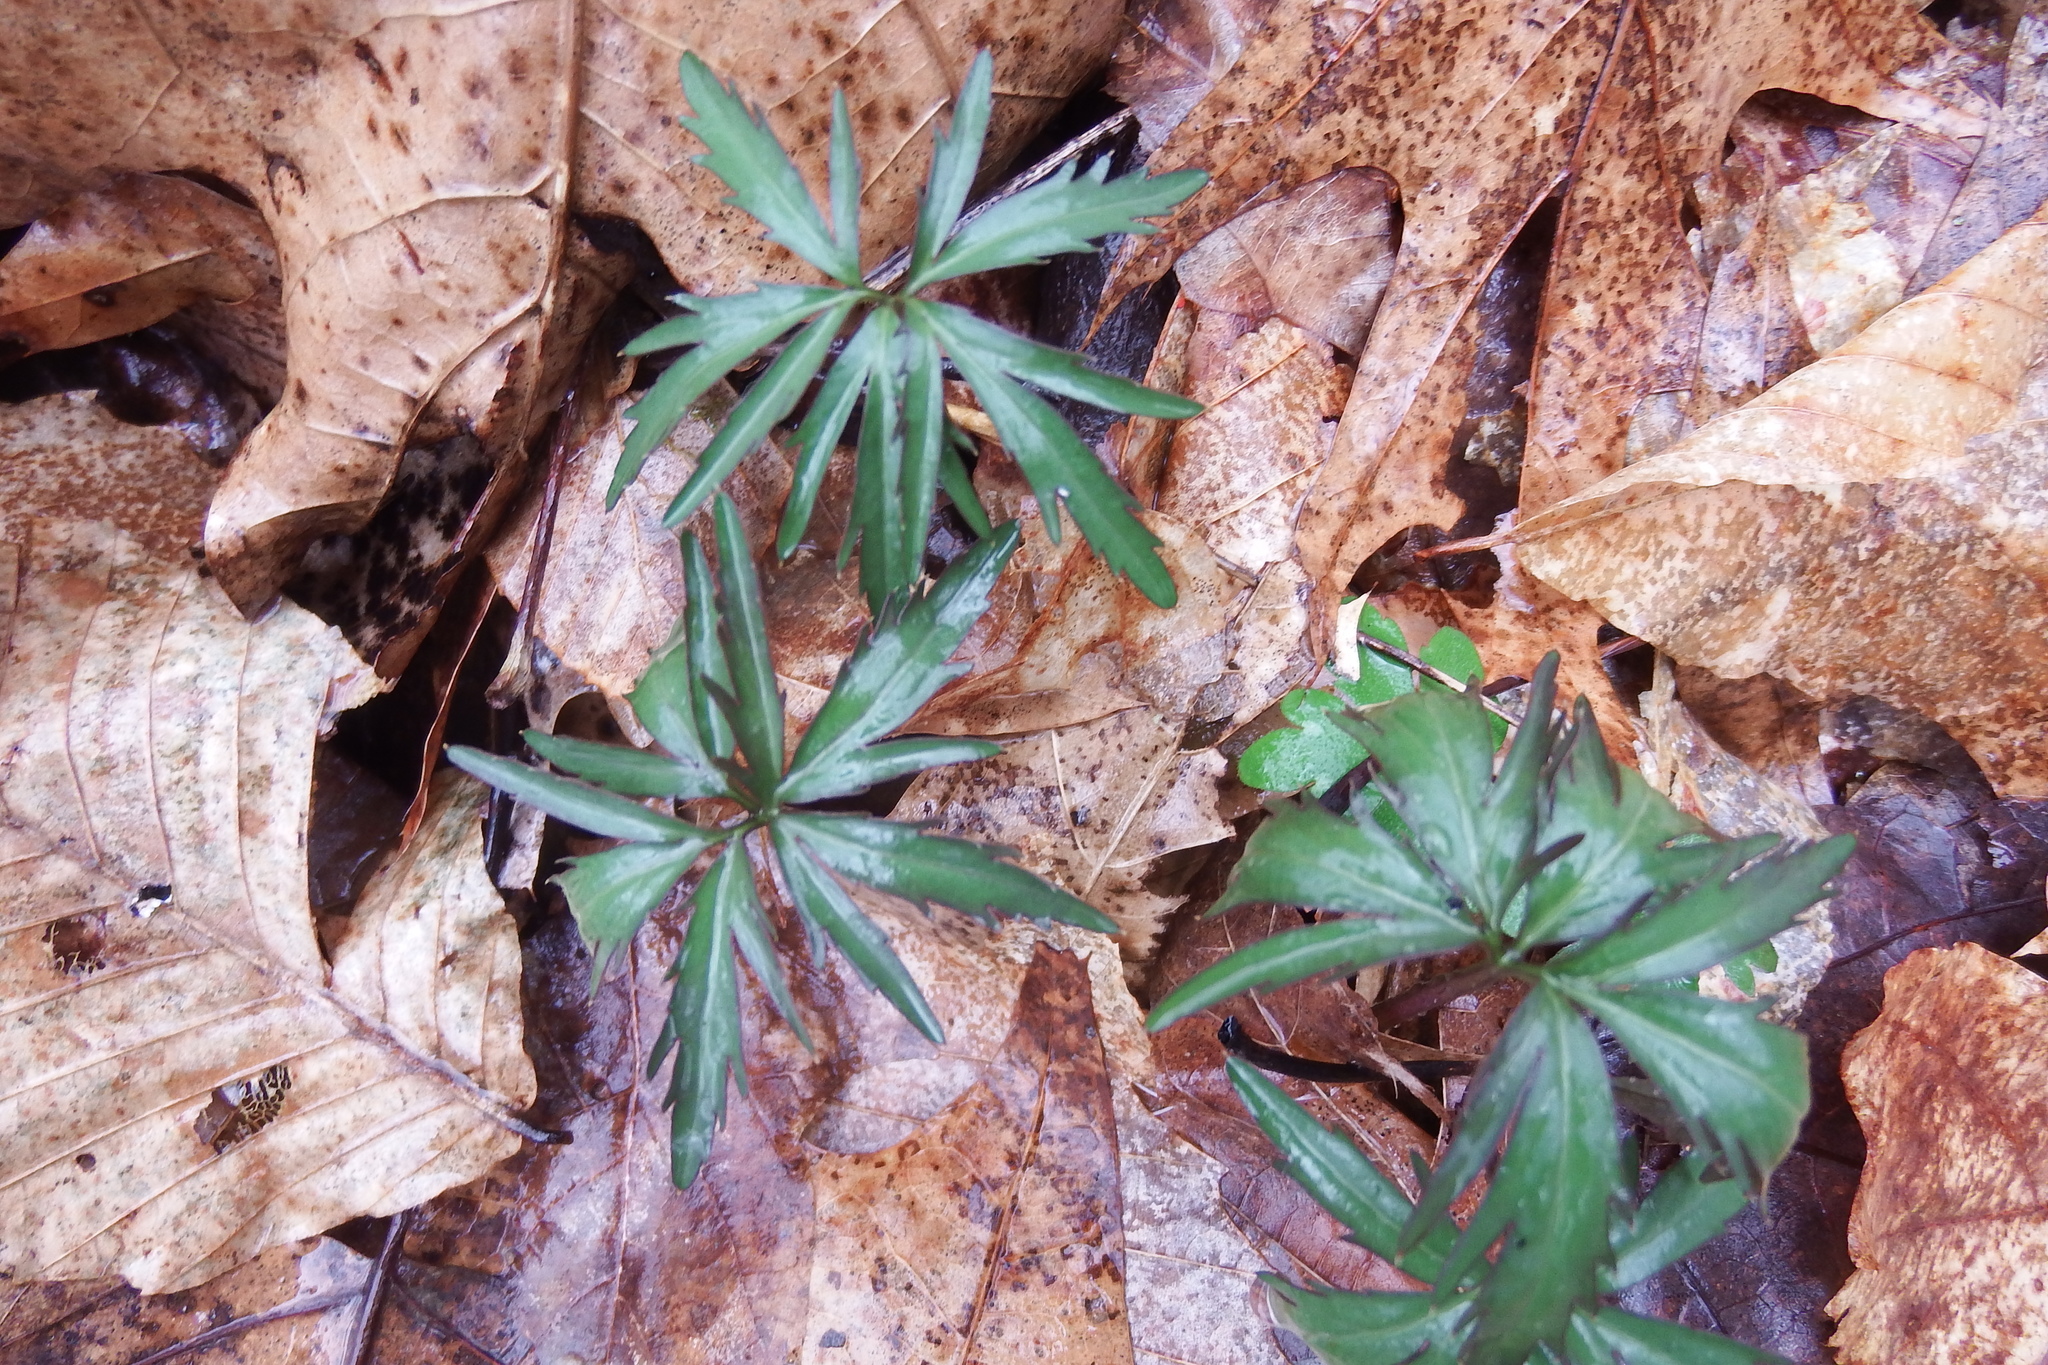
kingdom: Plantae
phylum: Tracheophyta
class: Magnoliopsida
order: Brassicales
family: Brassicaceae
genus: Cardamine
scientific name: Cardamine concatenata
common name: Cut-leaf toothcup
